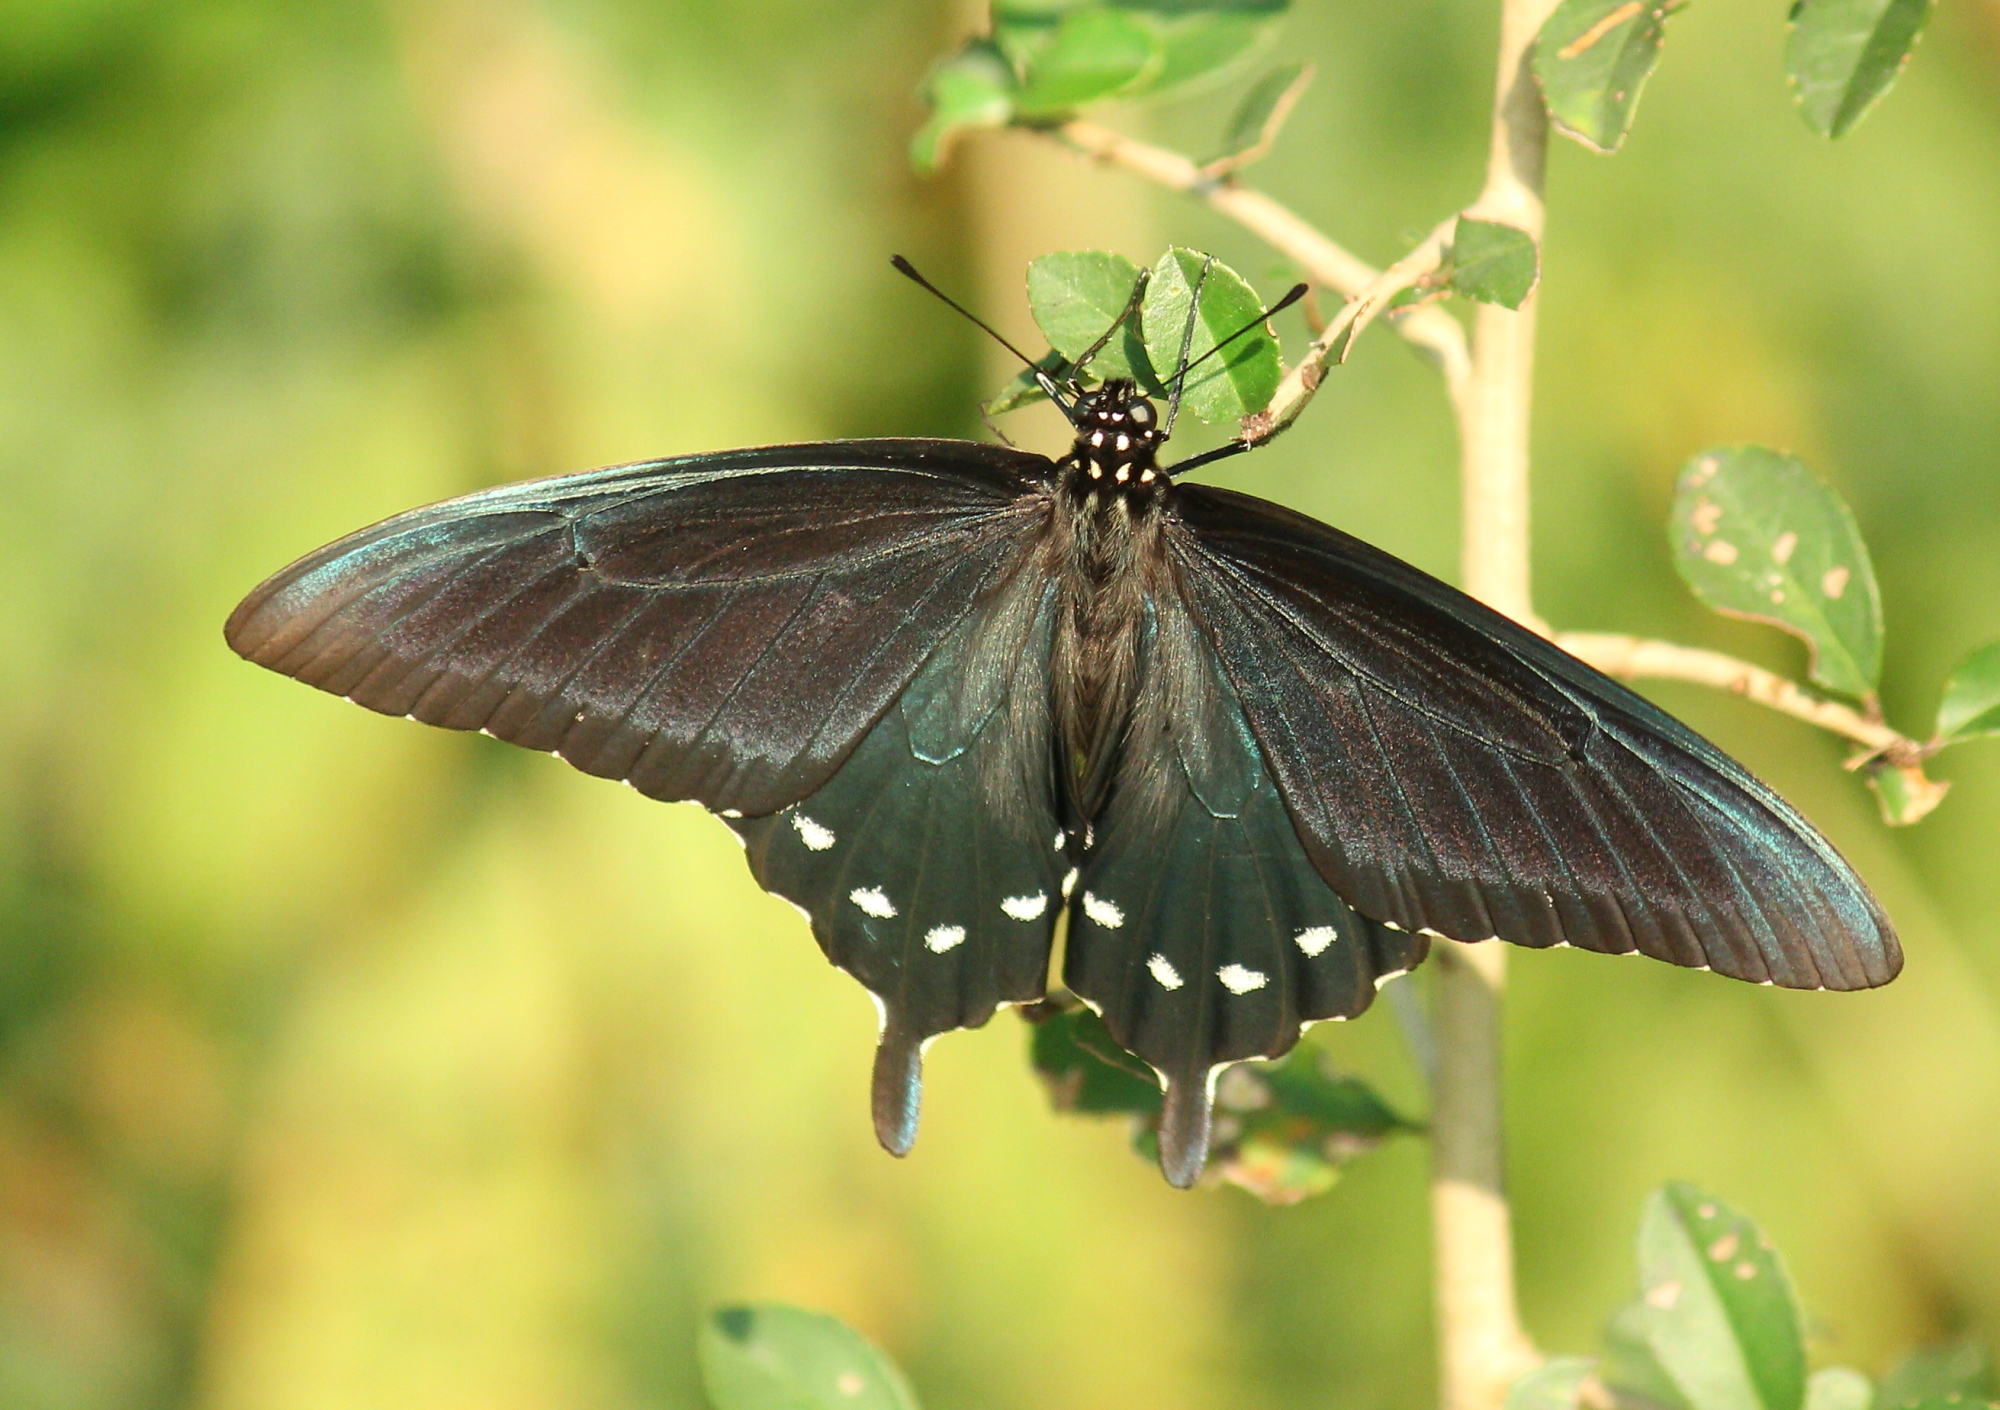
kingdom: Animalia
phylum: Arthropoda
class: Insecta
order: Lepidoptera
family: Papilionidae
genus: Battus
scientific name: Battus philenor
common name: Pipevine swallowtail
